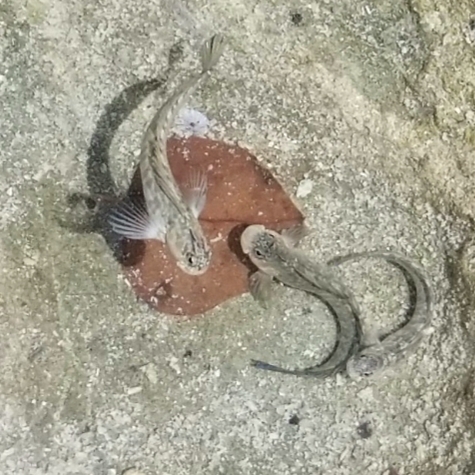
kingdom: Animalia
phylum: Chordata
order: Perciformes
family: Blenniidae
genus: Istiblennius
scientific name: Istiblennius zebra
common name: Zebra blenny
